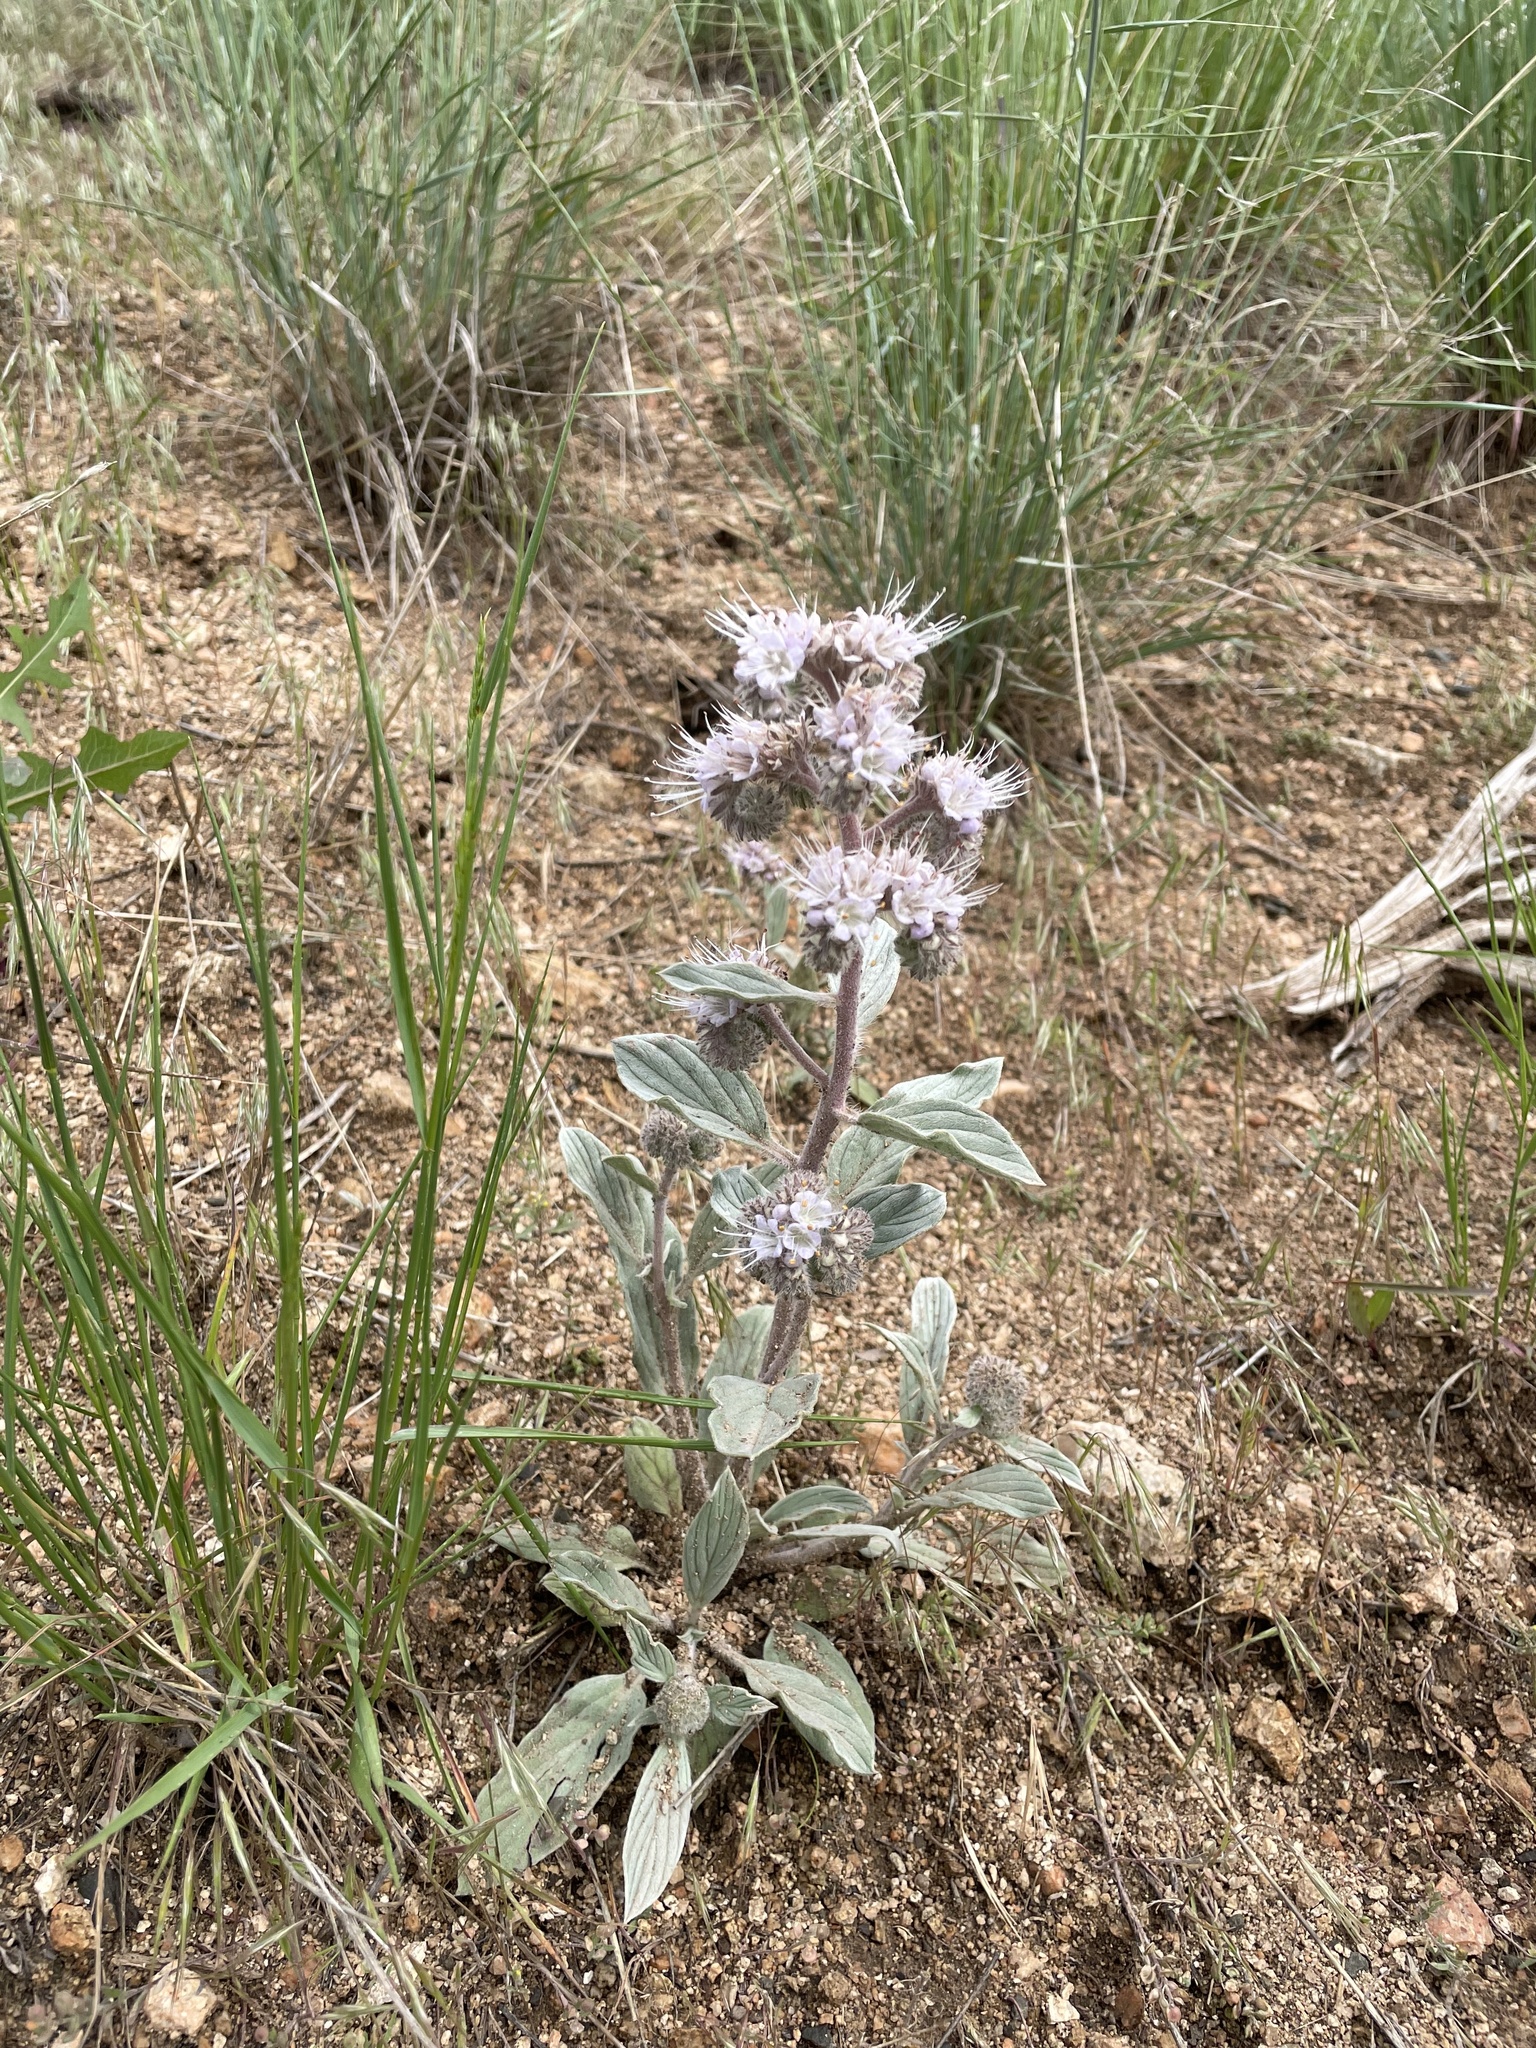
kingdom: Plantae
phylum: Tracheophyta
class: Magnoliopsida
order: Boraginales
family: Hydrophyllaceae
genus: Phacelia
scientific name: Phacelia hastata
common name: Silver-leaved phacelia
